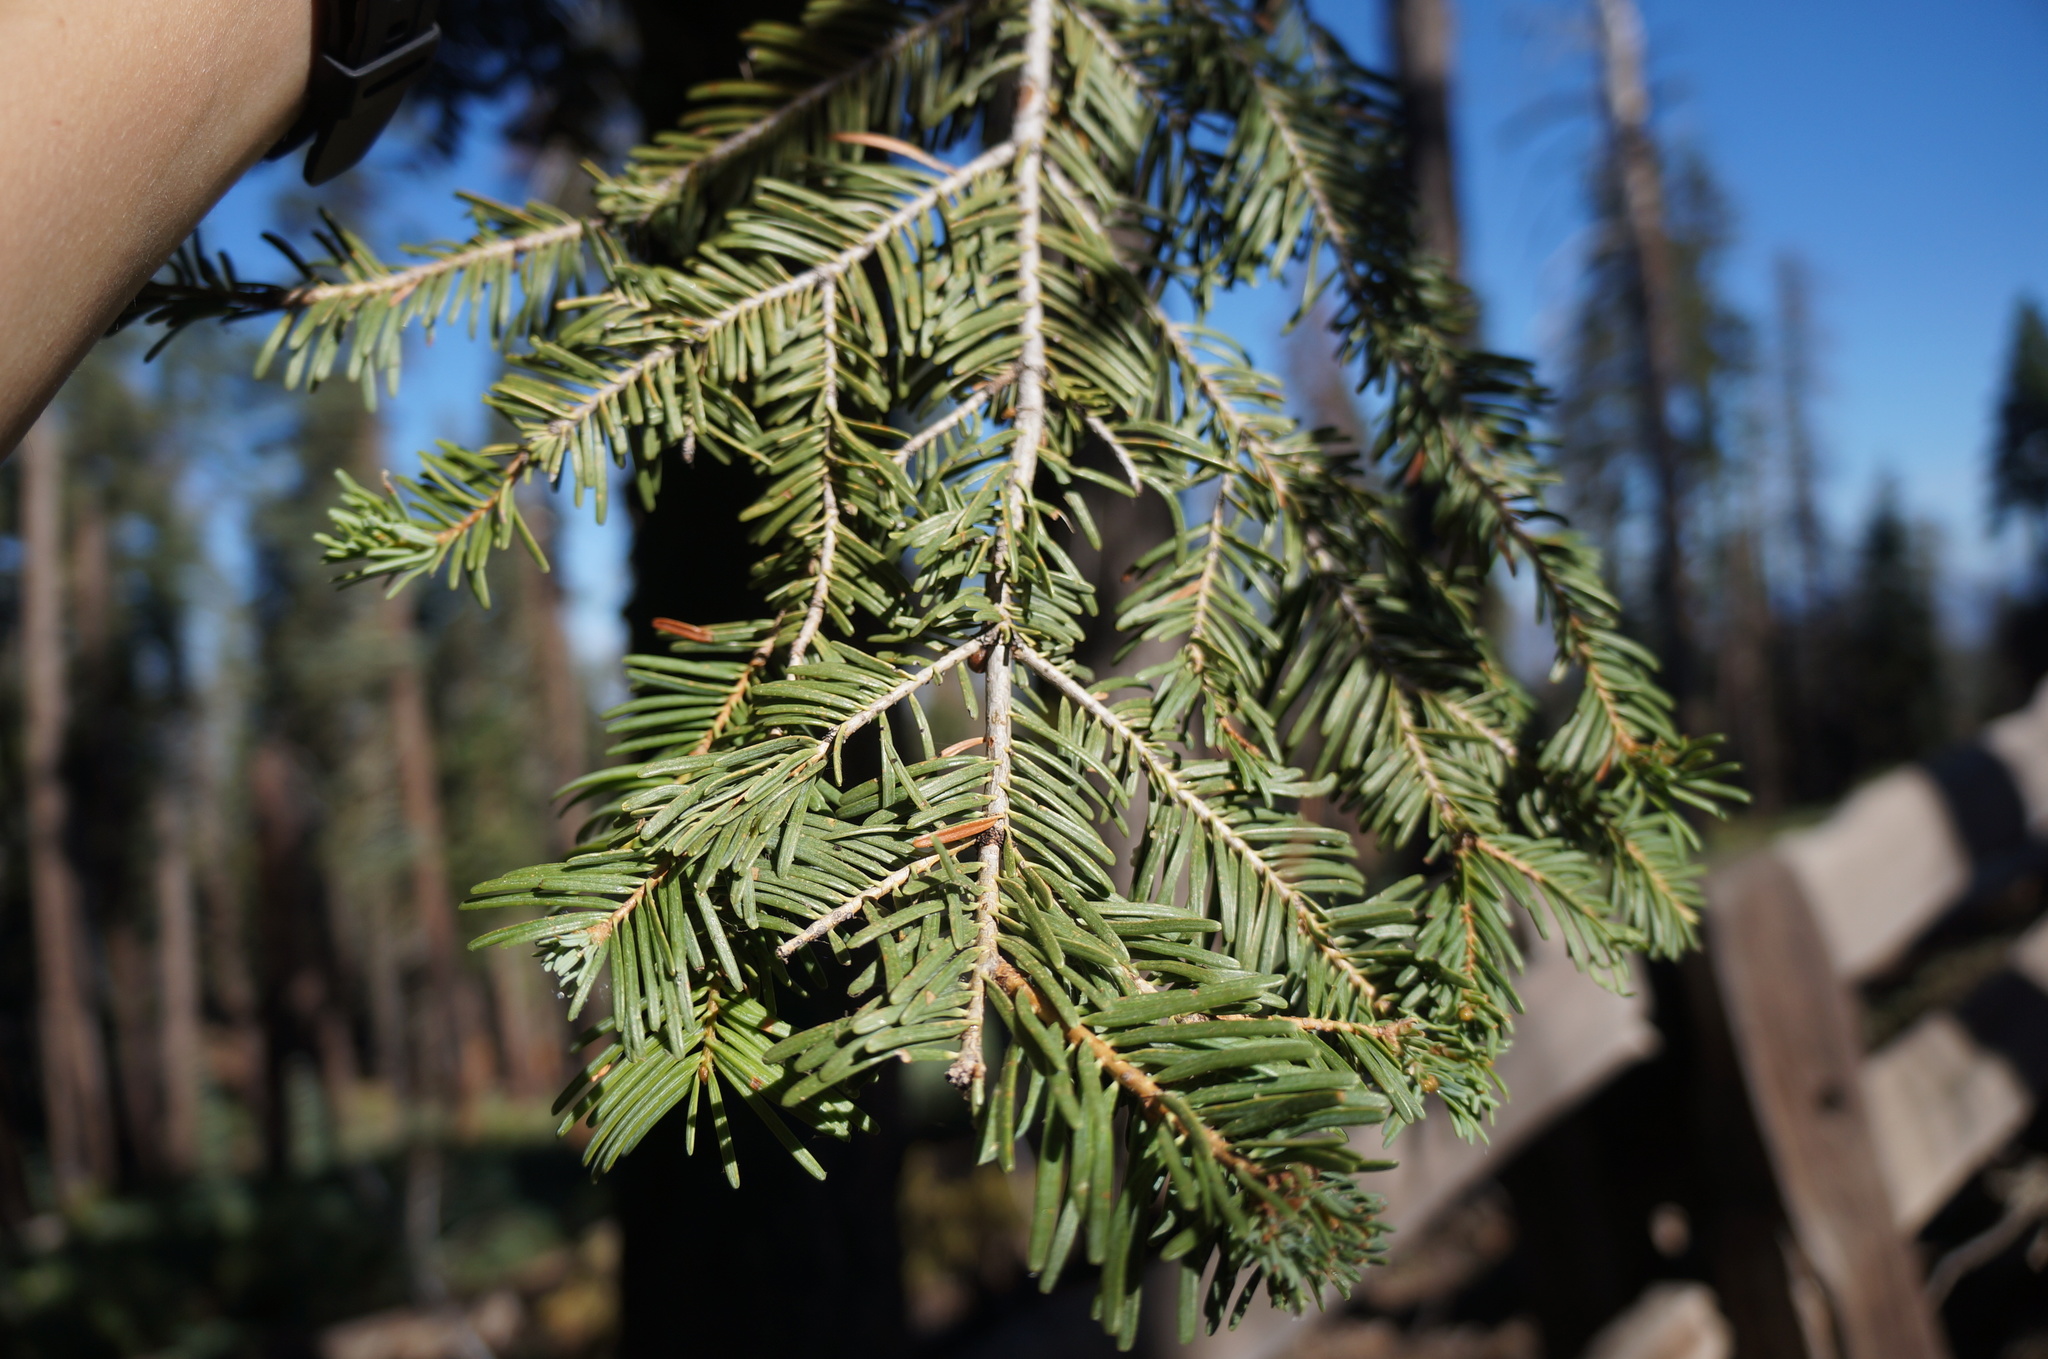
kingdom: Plantae
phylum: Tracheophyta
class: Pinopsida
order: Pinales
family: Pinaceae
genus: Abies
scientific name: Abies concolor
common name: Colorado fir
